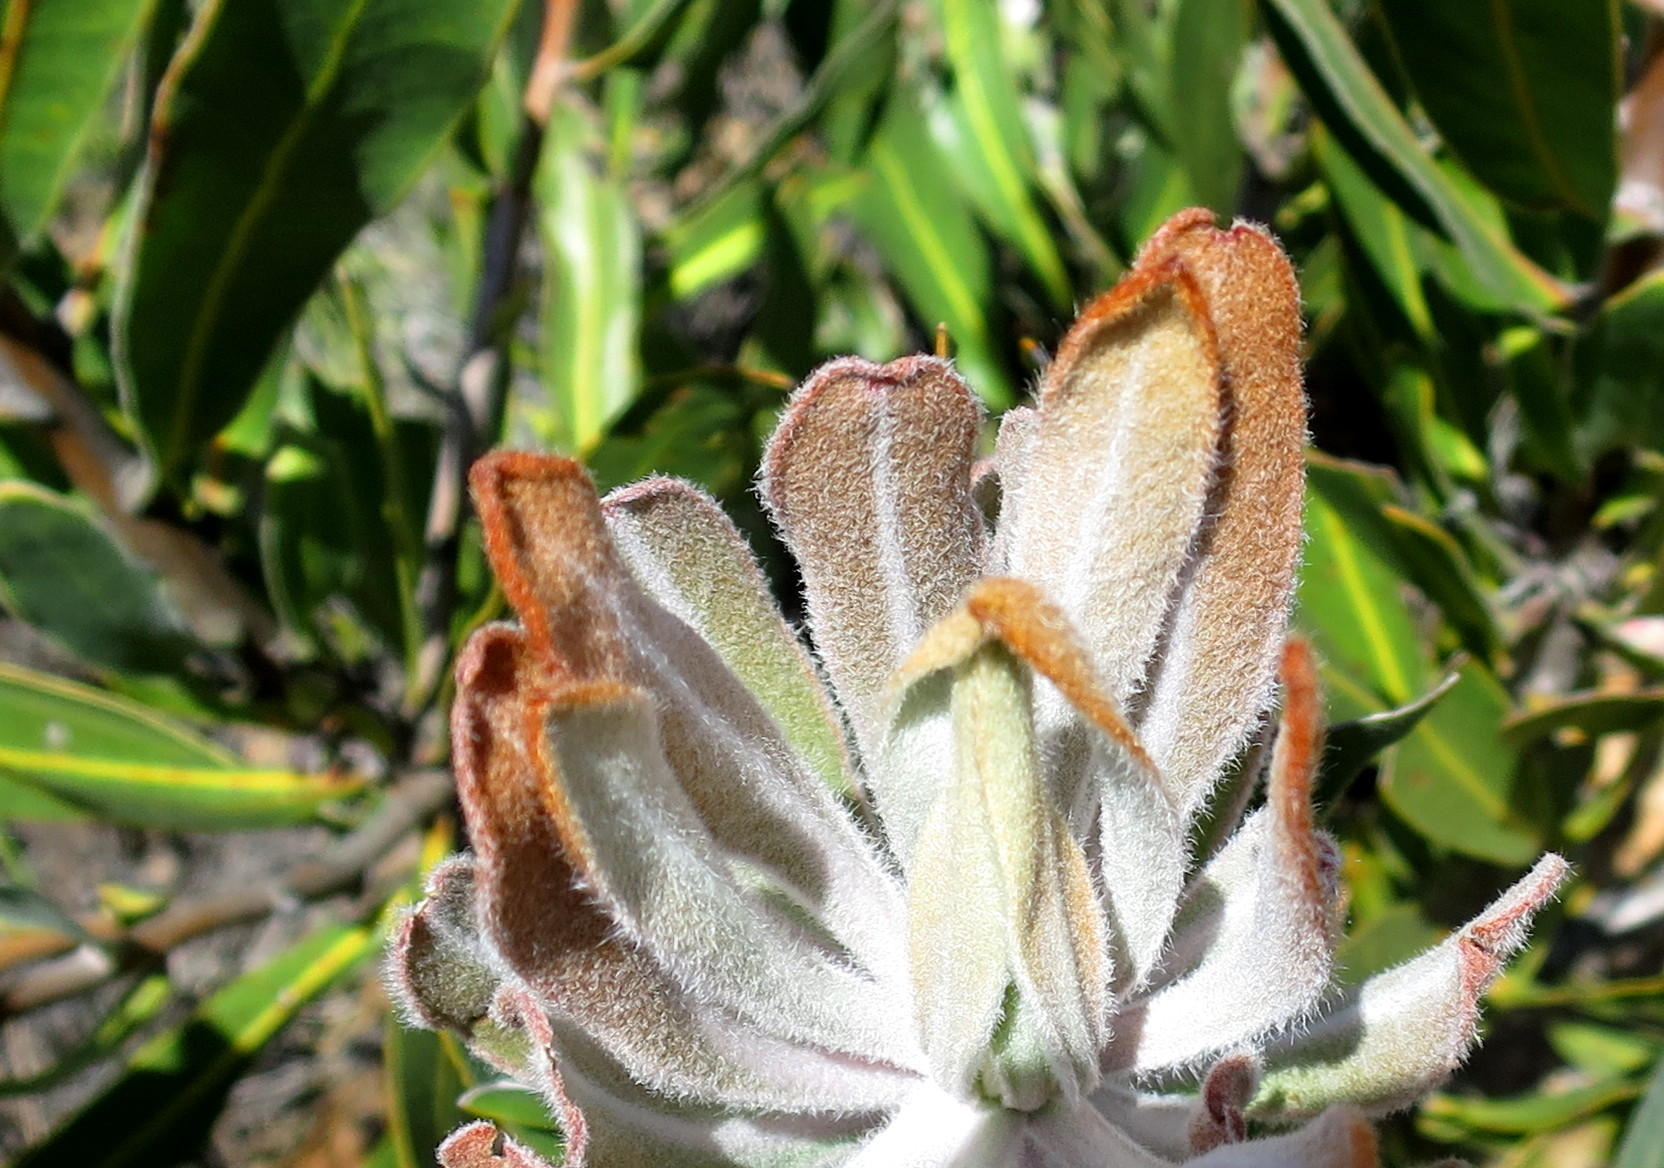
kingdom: Plantae
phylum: Tracheophyta
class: Magnoliopsida
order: Proteales
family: Proteaceae
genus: Protea
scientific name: Protea lorifolia
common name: Strap-leaved protea
